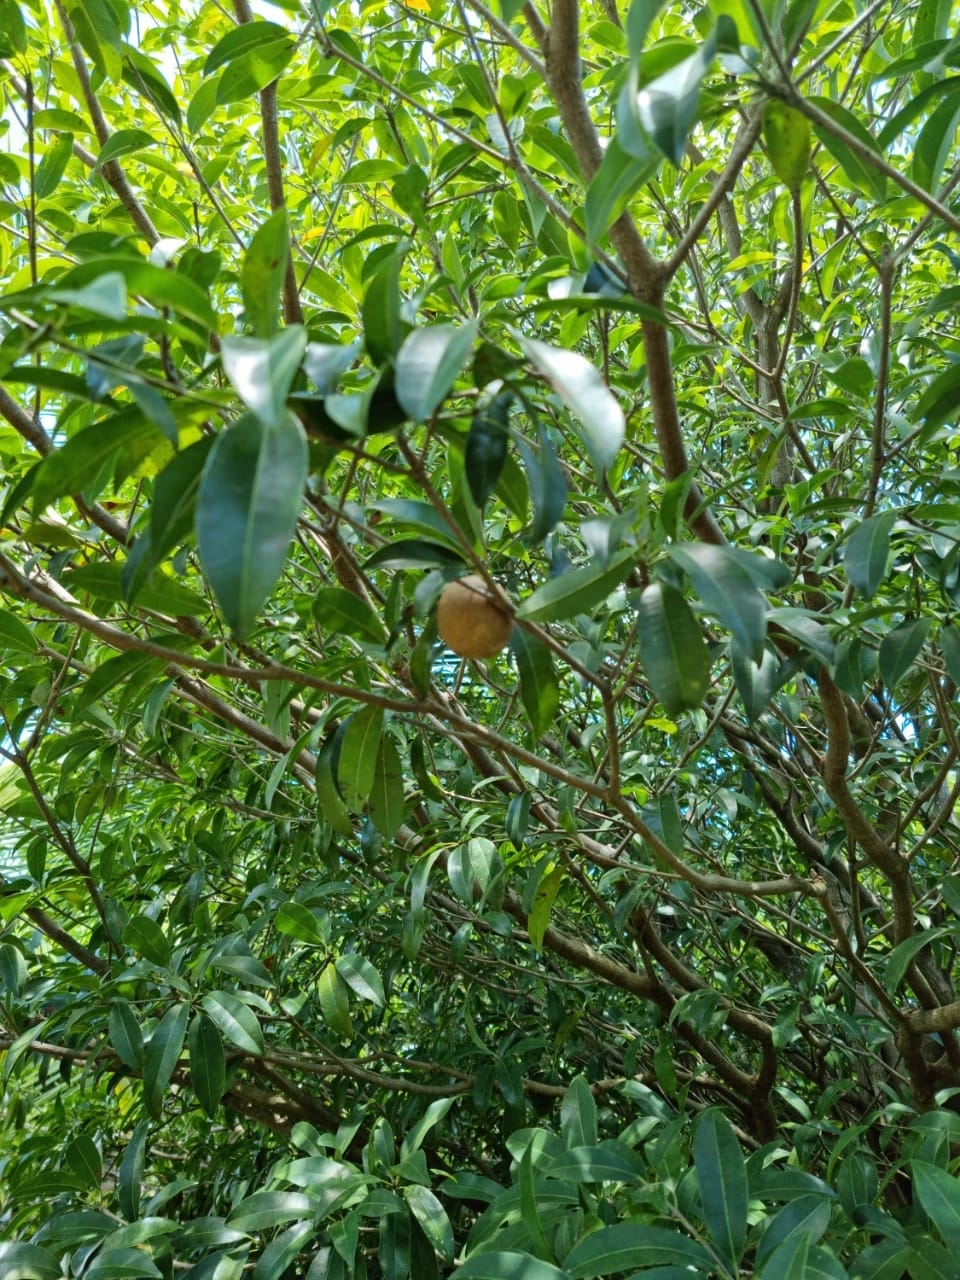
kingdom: Plantae
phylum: Tracheophyta
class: Magnoliopsida
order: Ericales
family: Sapotaceae
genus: Manilkara
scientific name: Manilkara zapota
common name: Sapodilla
